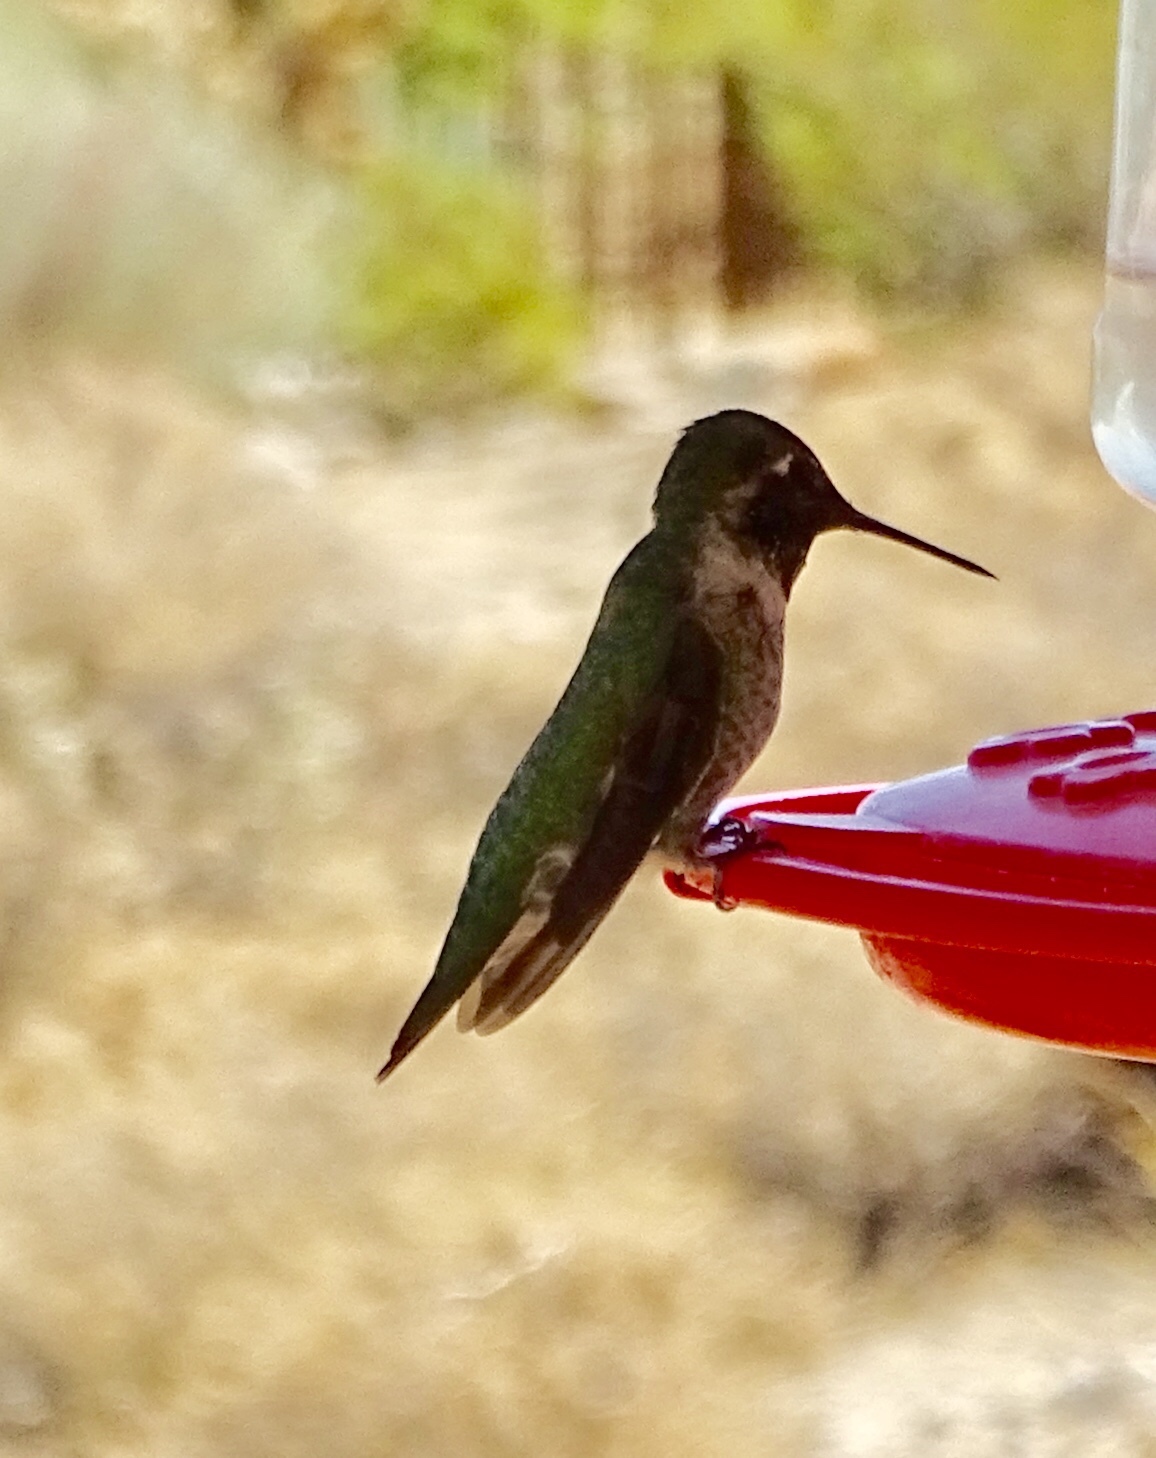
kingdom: Animalia
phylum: Chordata
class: Aves
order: Apodiformes
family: Trochilidae
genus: Calypte
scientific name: Calypte anna
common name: Anna's hummingbird
